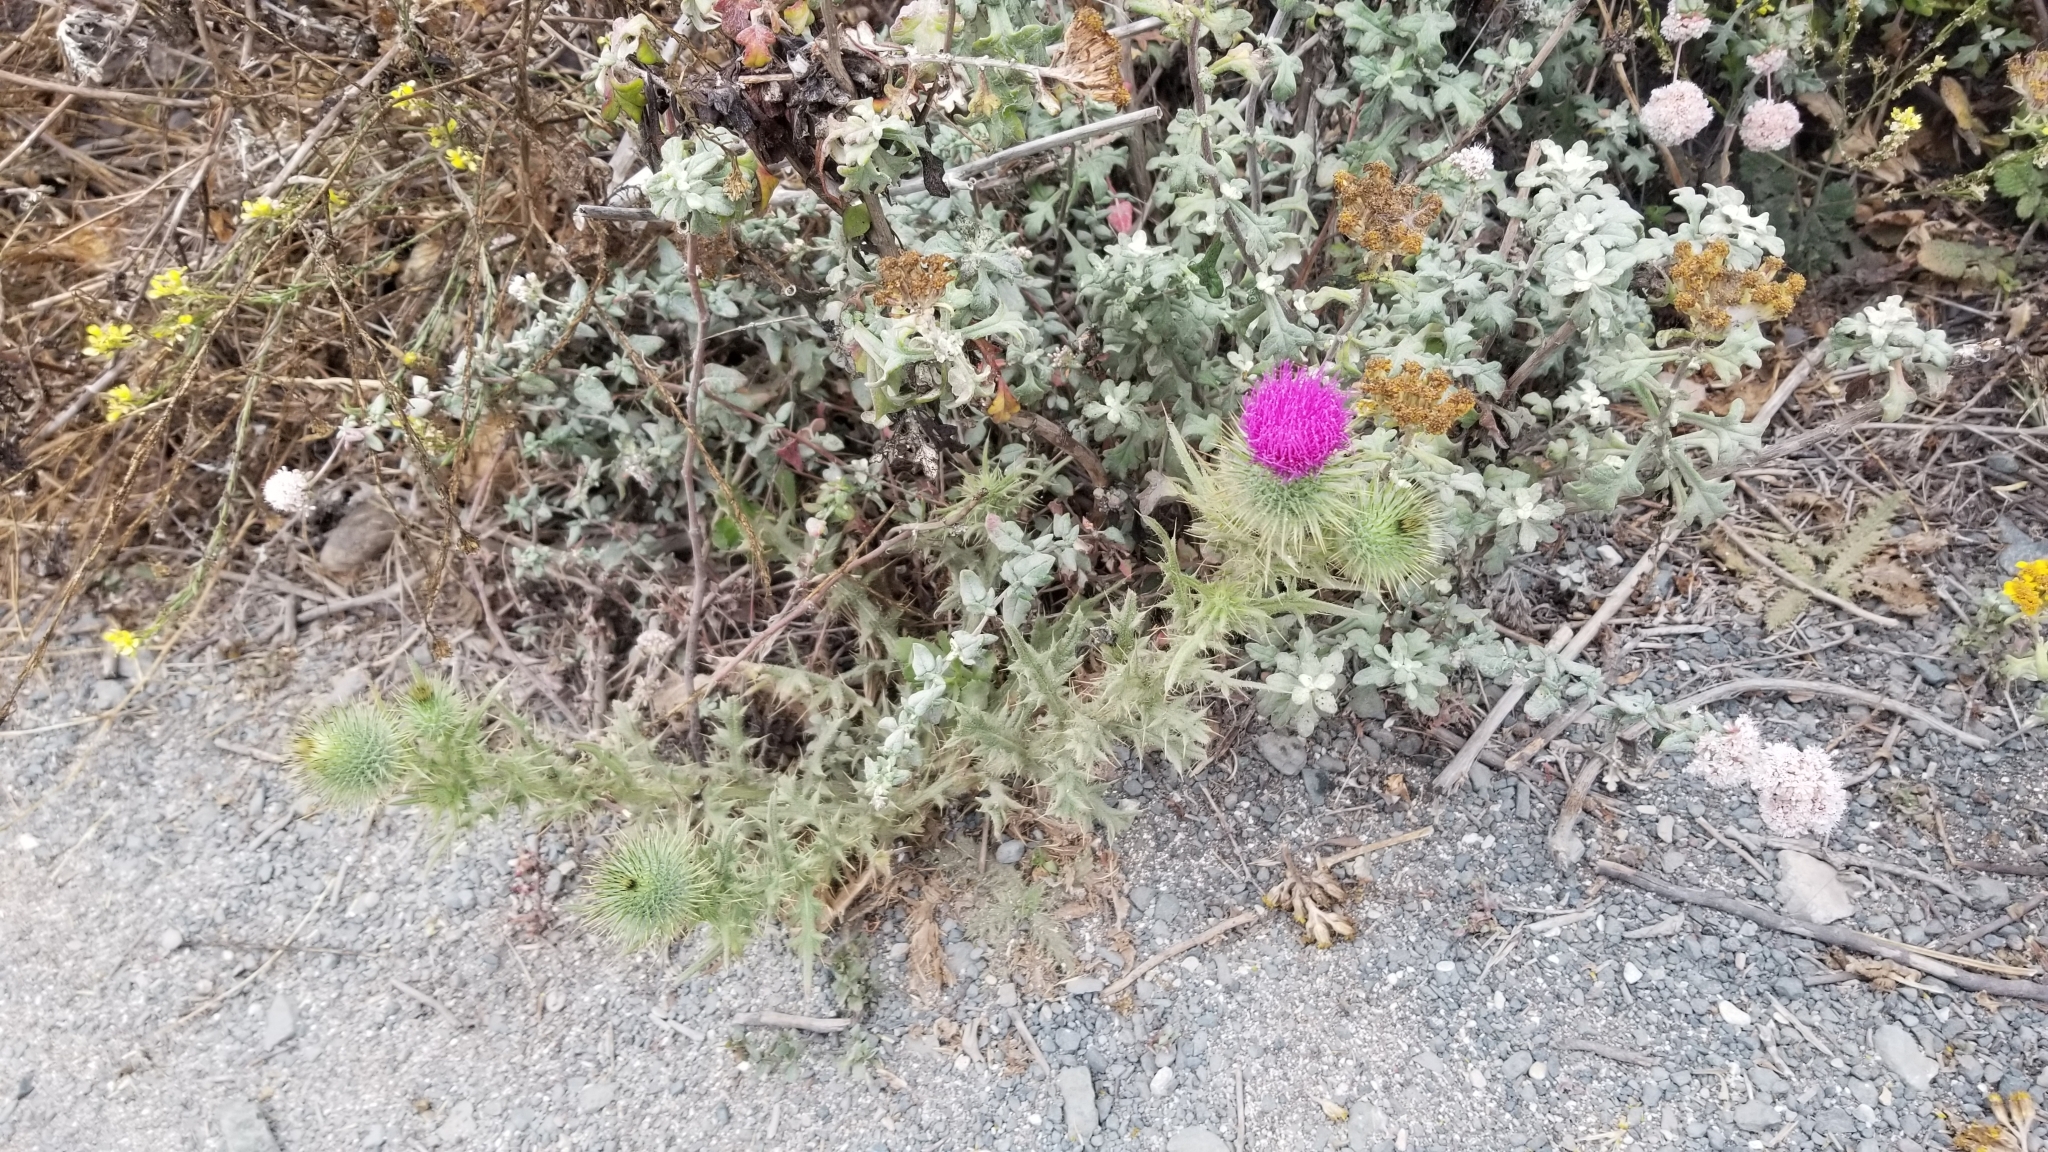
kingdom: Plantae
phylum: Tracheophyta
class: Magnoliopsida
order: Asterales
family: Asteraceae
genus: Cirsium
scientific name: Cirsium vulgare
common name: Bull thistle
